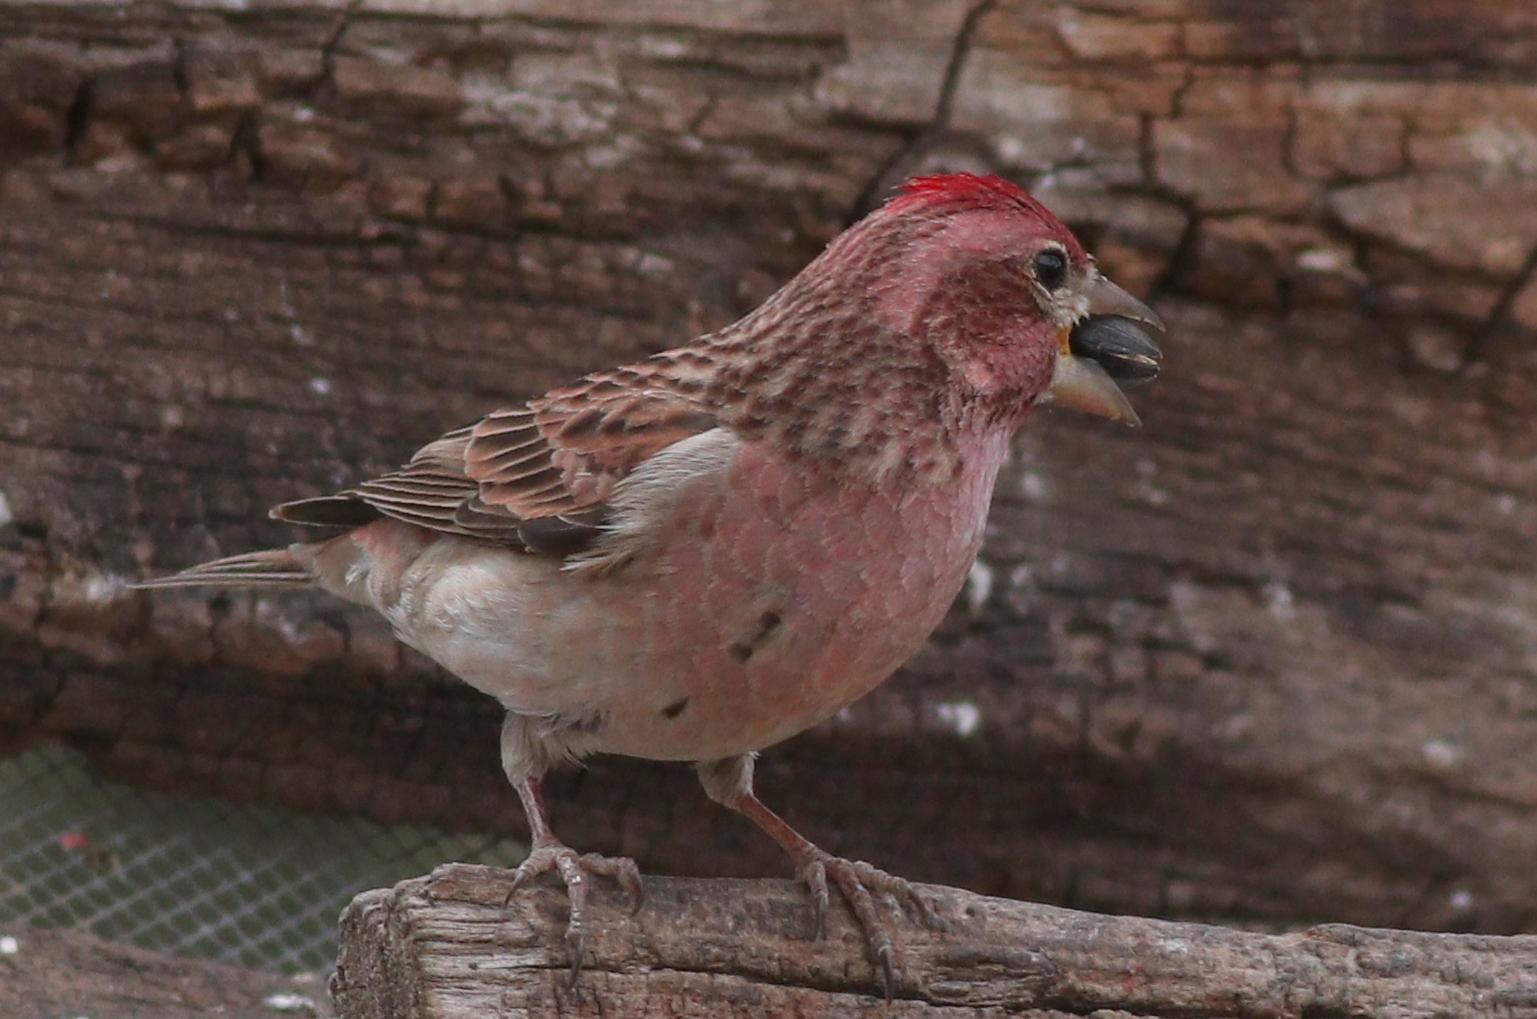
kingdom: Animalia
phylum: Chordata
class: Aves
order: Passeriformes
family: Fringillidae
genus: Haemorhous
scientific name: Haemorhous cassinii
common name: Cassin's finch
